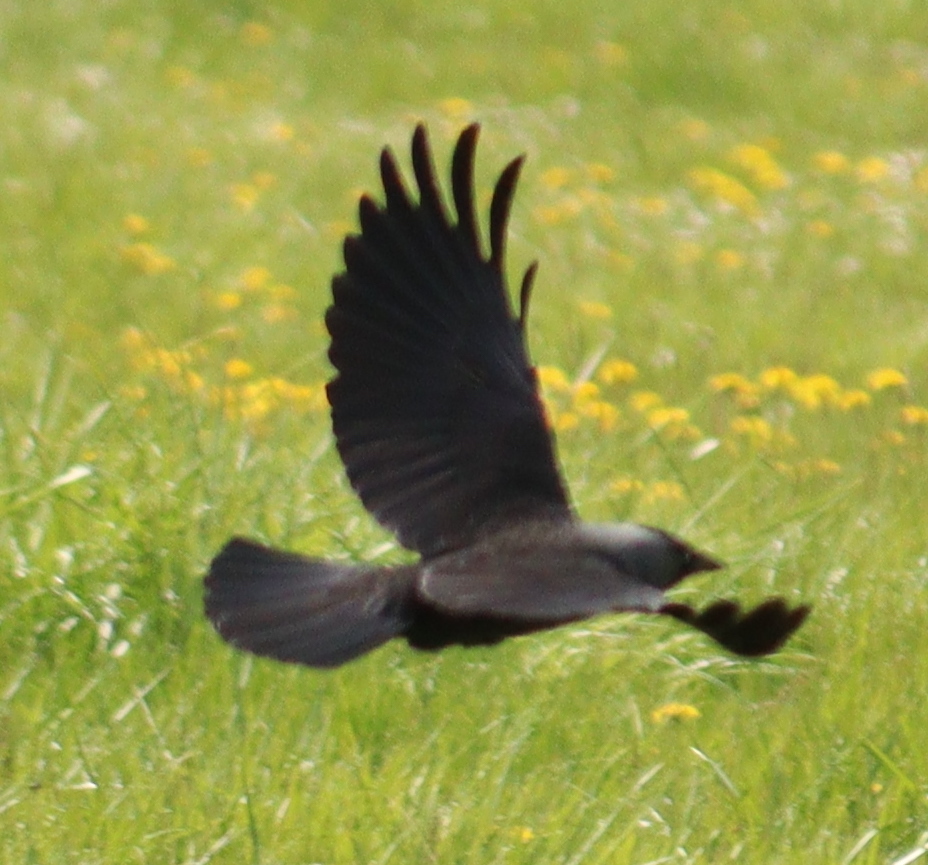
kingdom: Animalia
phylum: Chordata
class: Aves
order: Passeriformes
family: Corvidae
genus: Coloeus
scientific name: Coloeus monedula
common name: Western jackdaw
